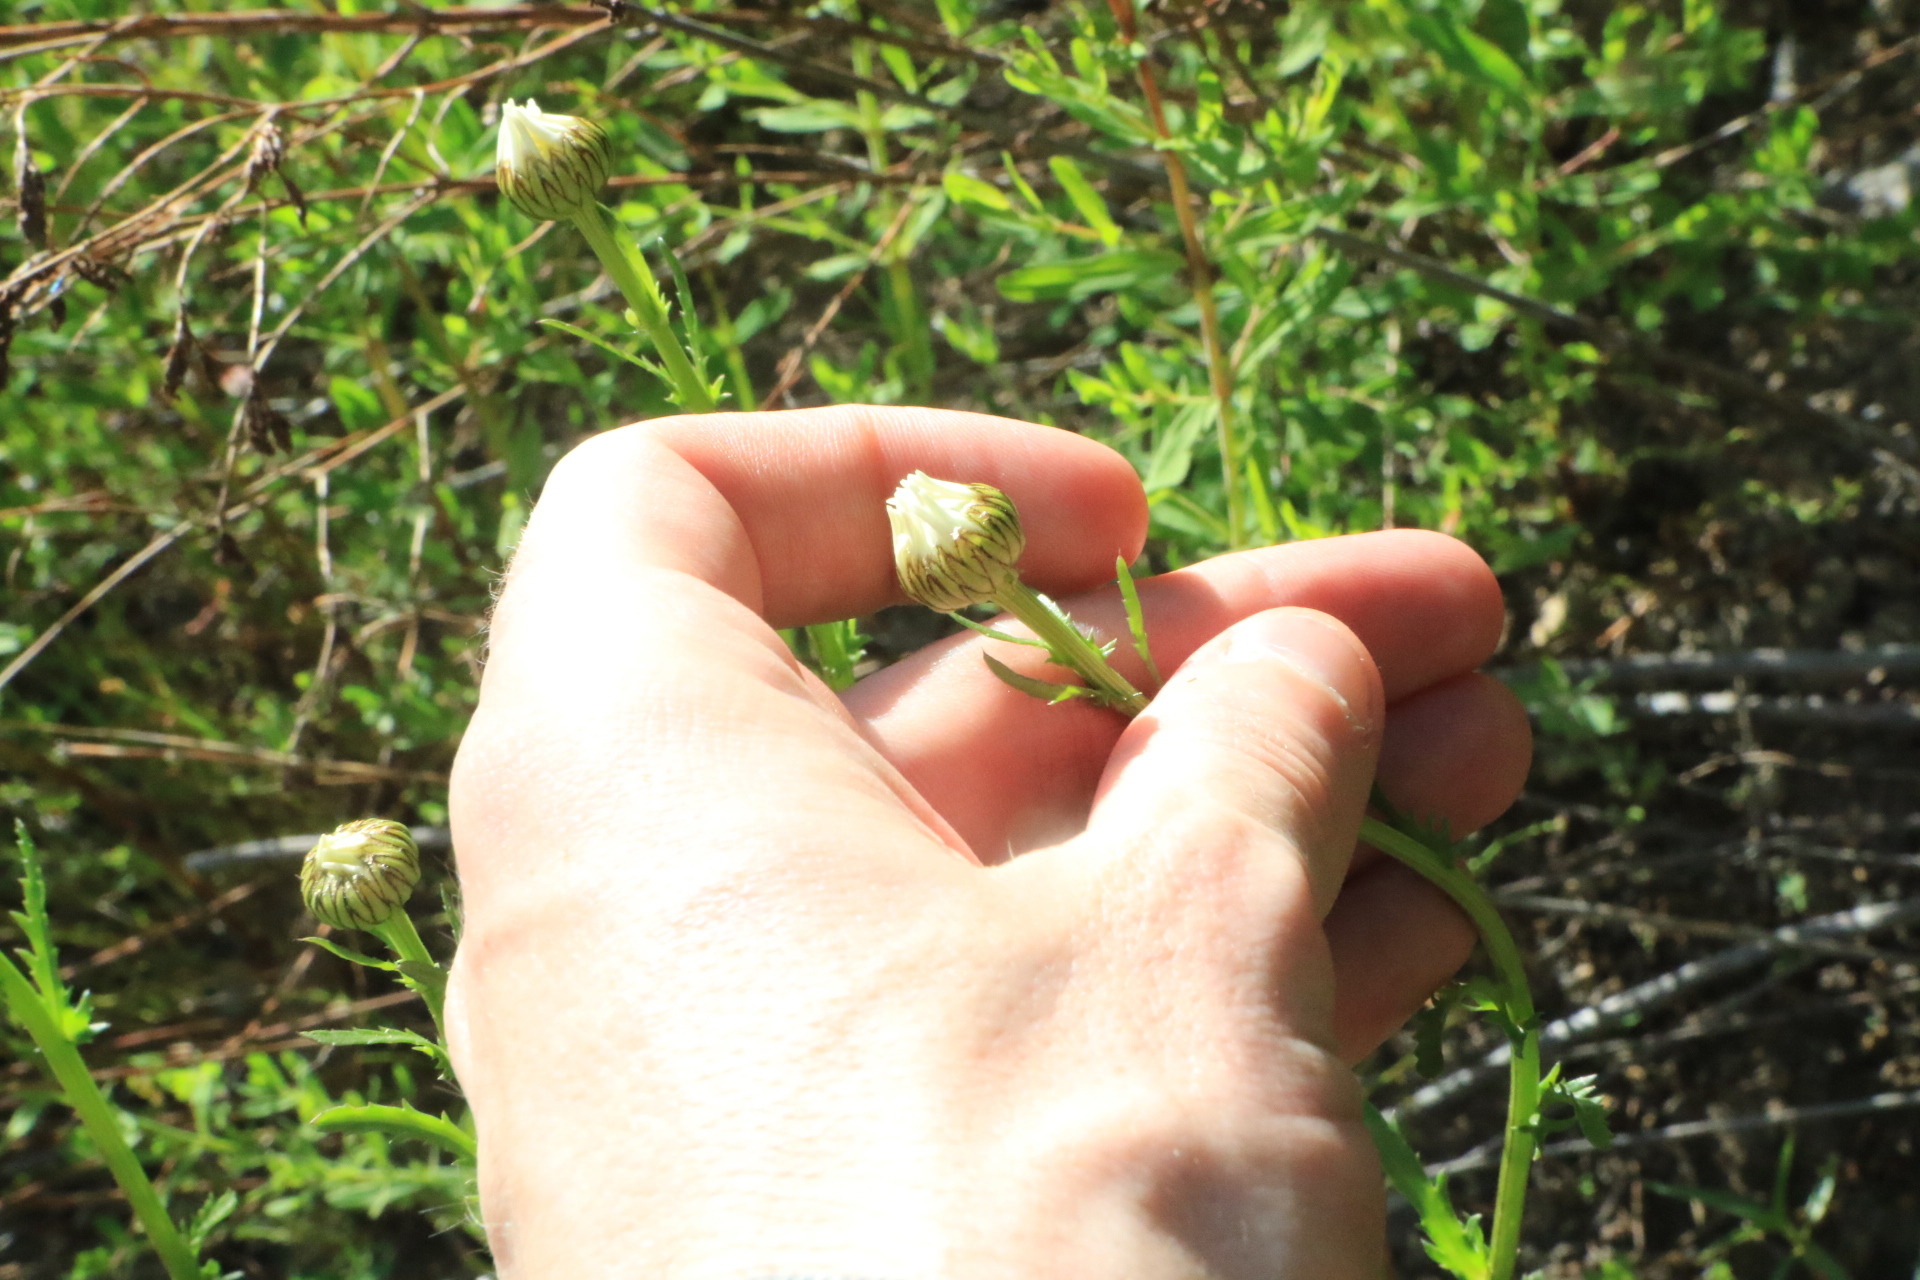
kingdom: Plantae
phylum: Tracheophyta
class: Magnoliopsida
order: Asterales
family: Asteraceae
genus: Leucanthemum
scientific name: Leucanthemum vulgare
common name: Oxeye daisy
